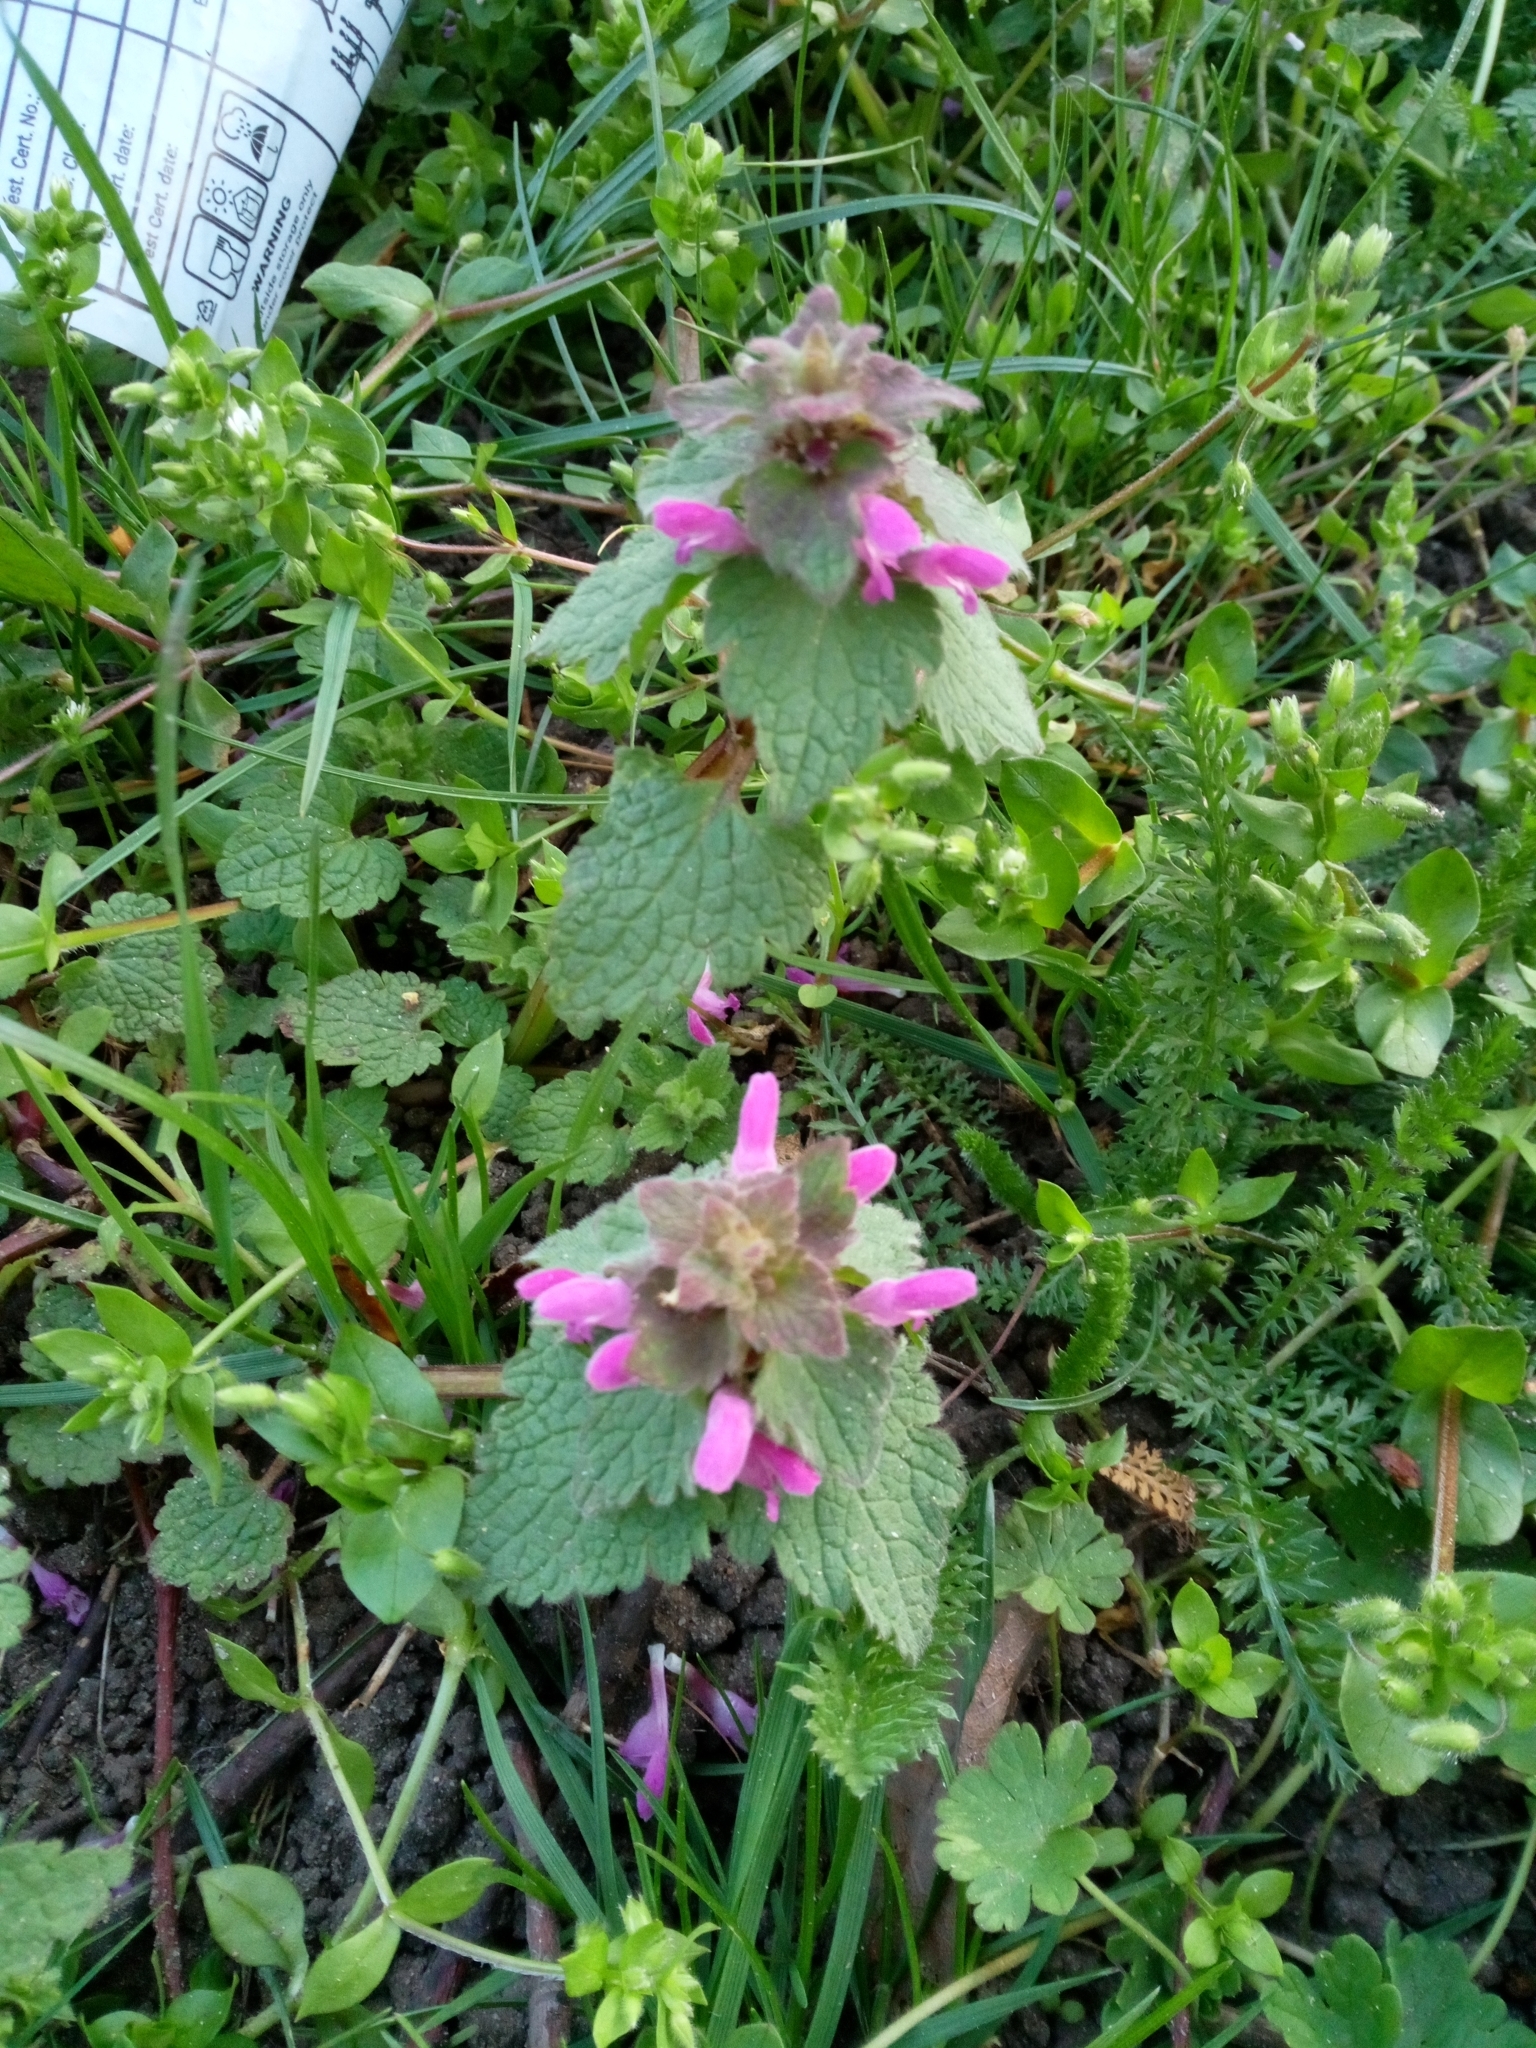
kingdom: Plantae
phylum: Tracheophyta
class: Magnoliopsida
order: Lamiales
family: Lamiaceae
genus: Lamium
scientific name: Lamium purpureum
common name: Red dead-nettle
